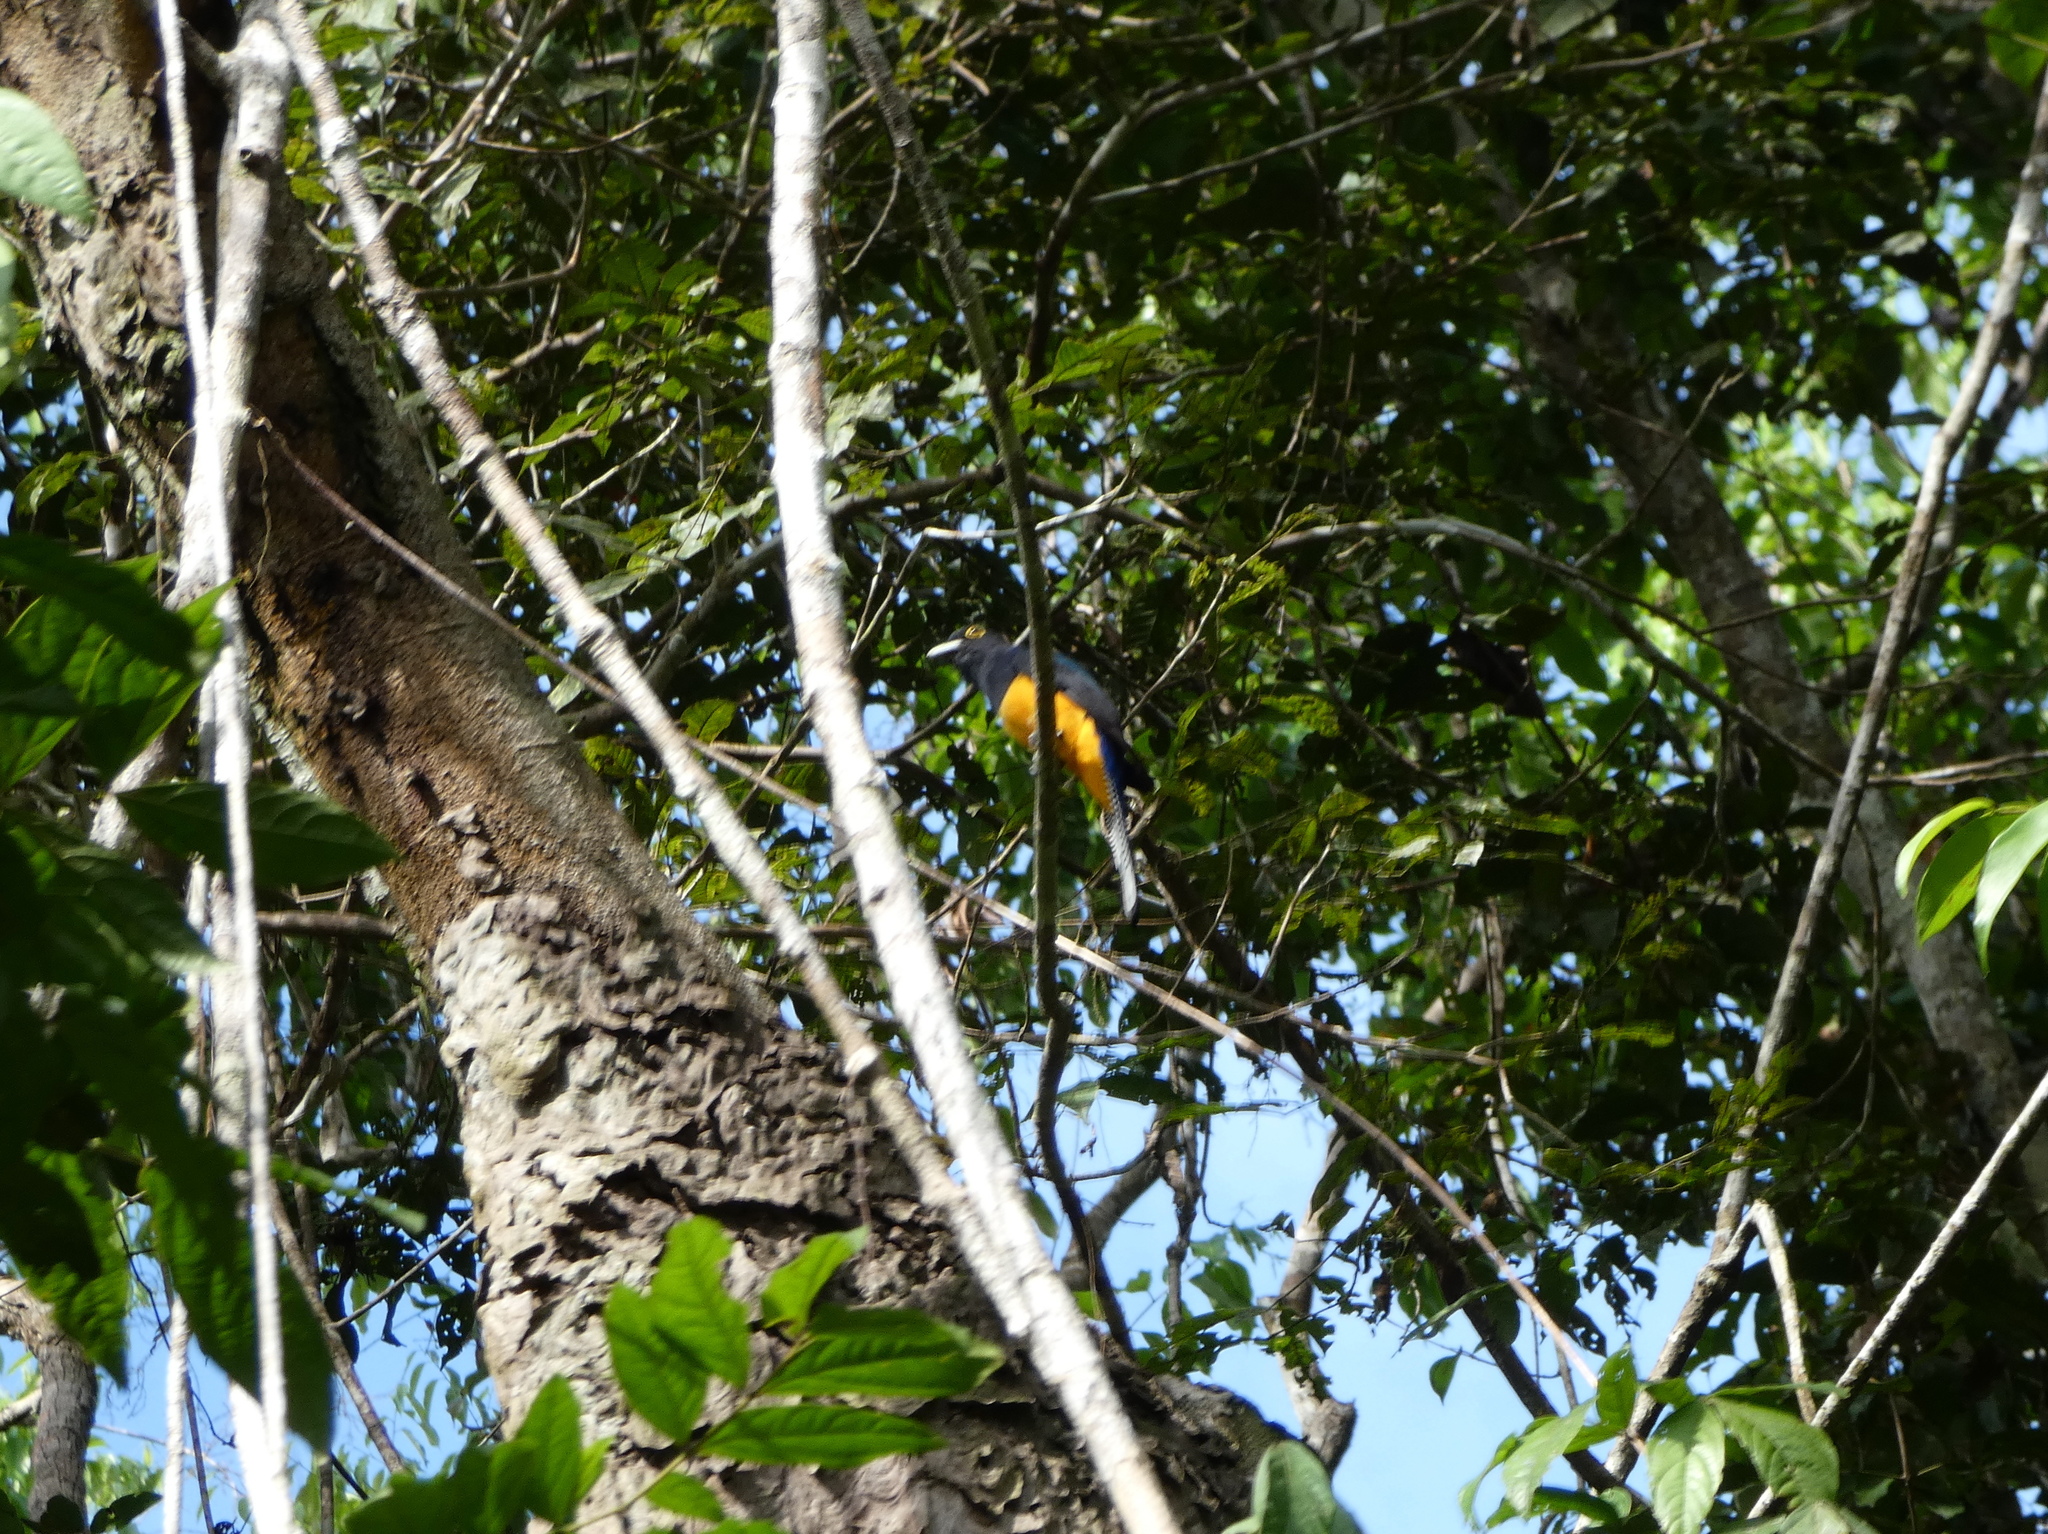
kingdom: Animalia
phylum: Chordata
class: Aves
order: Trogoniformes
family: Trogonidae
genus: Trogon
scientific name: Trogon ramonianus
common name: Amazonian trogon
